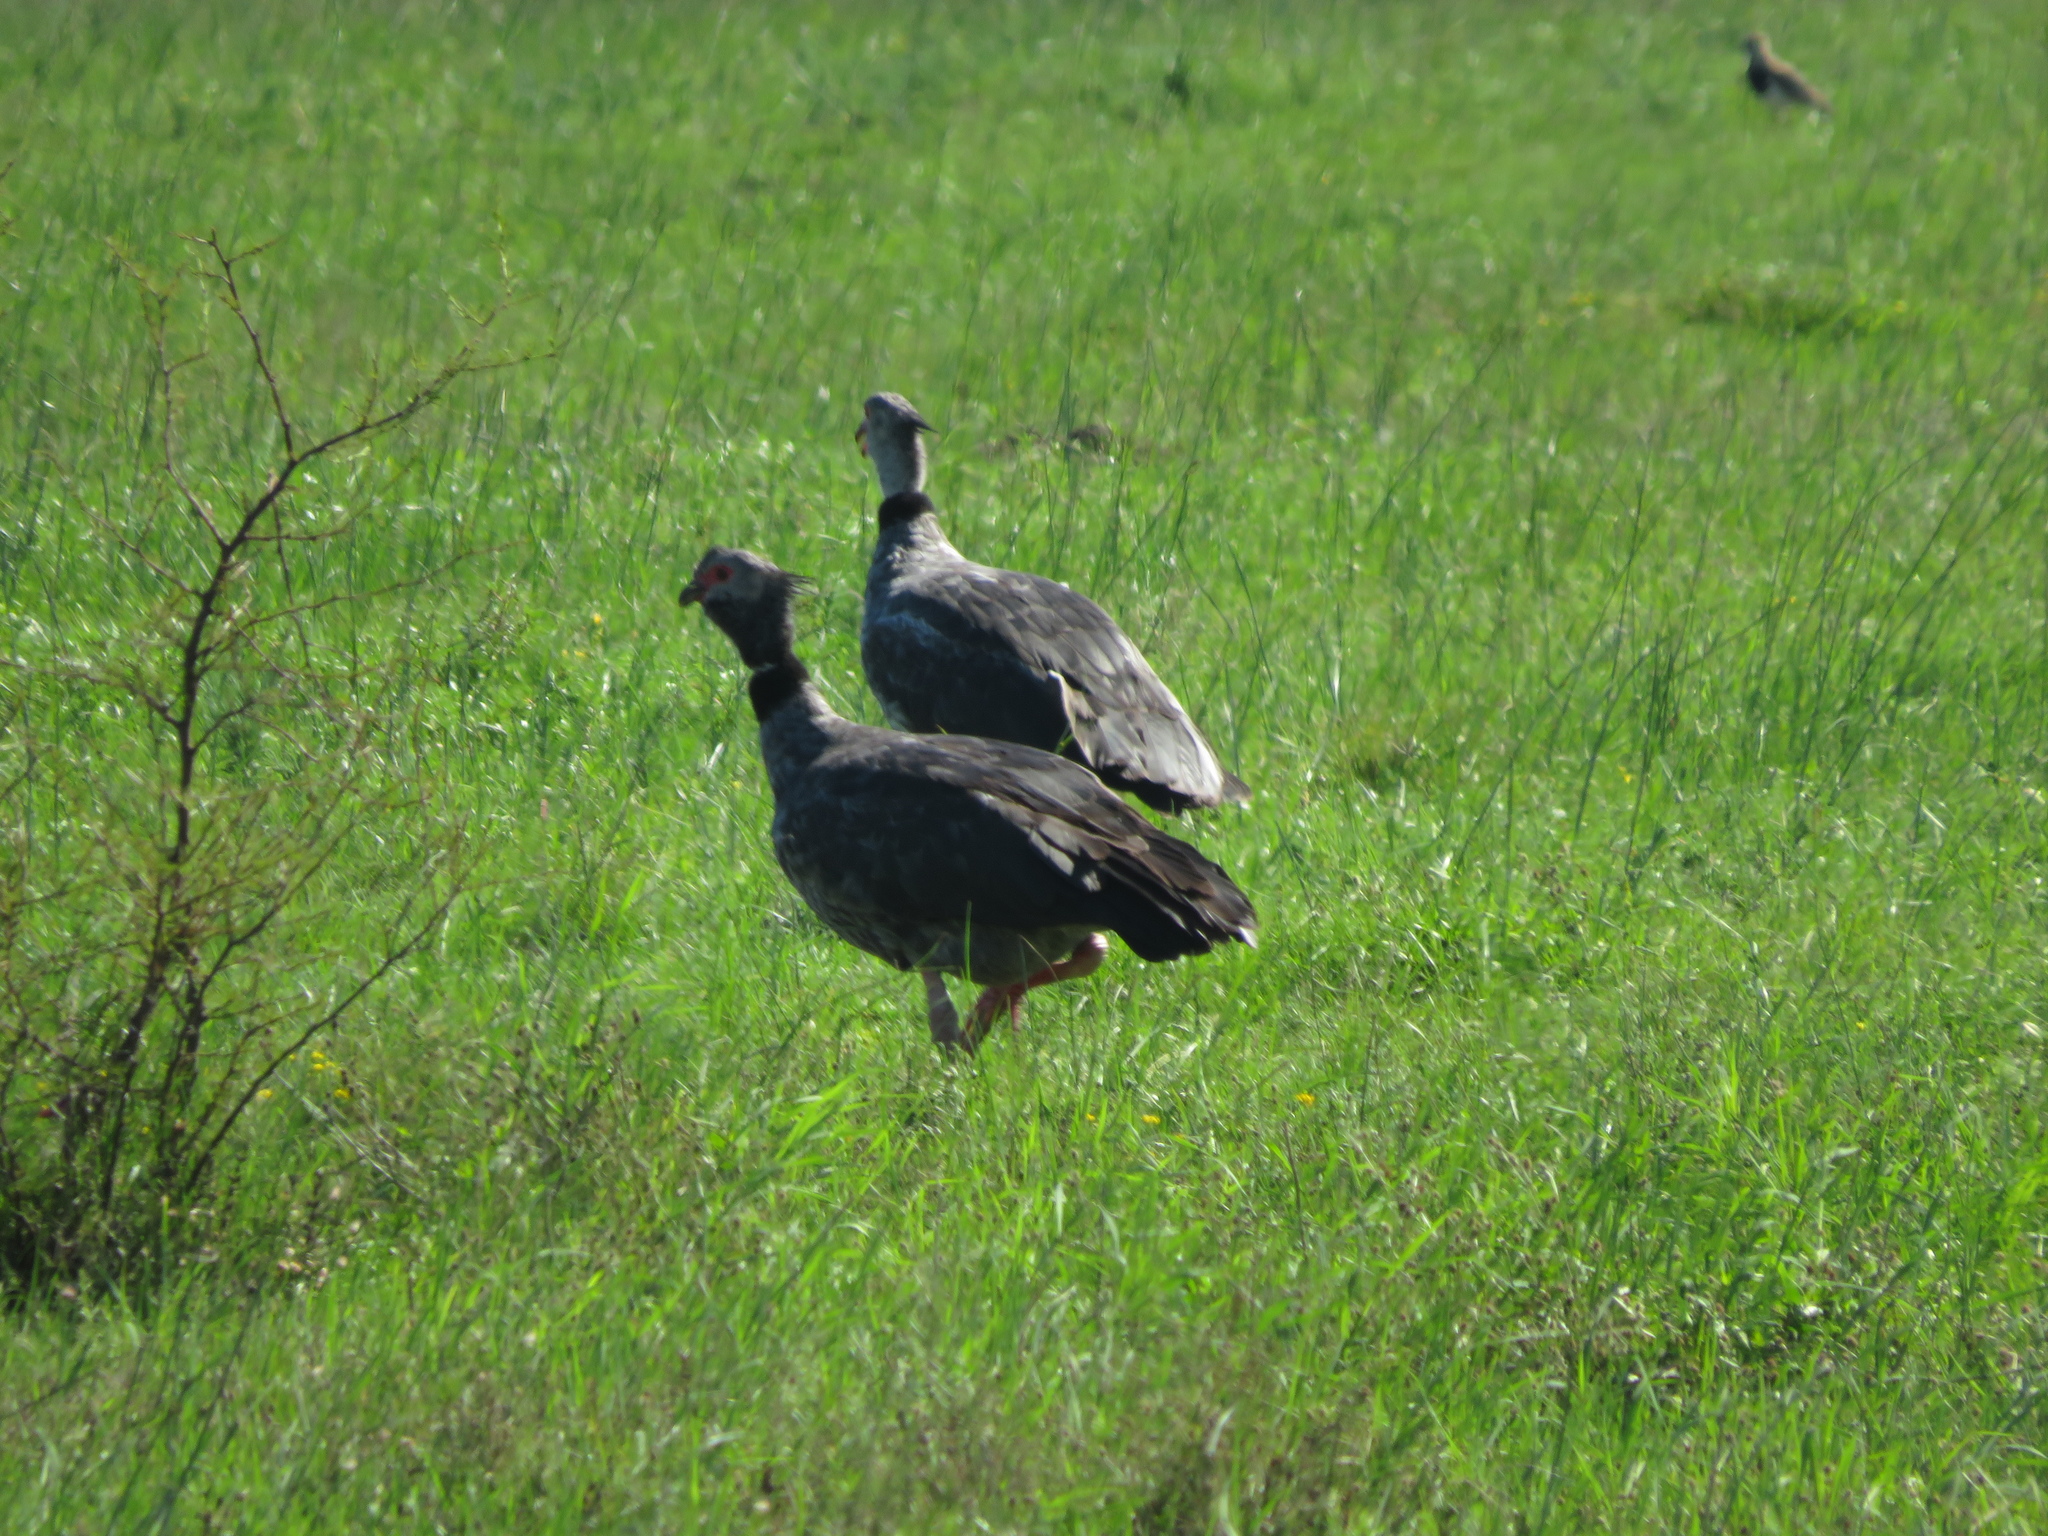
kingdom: Animalia
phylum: Chordata
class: Aves
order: Anseriformes
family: Anhimidae
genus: Chauna
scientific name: Chauna torquata
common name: Southern screamer
